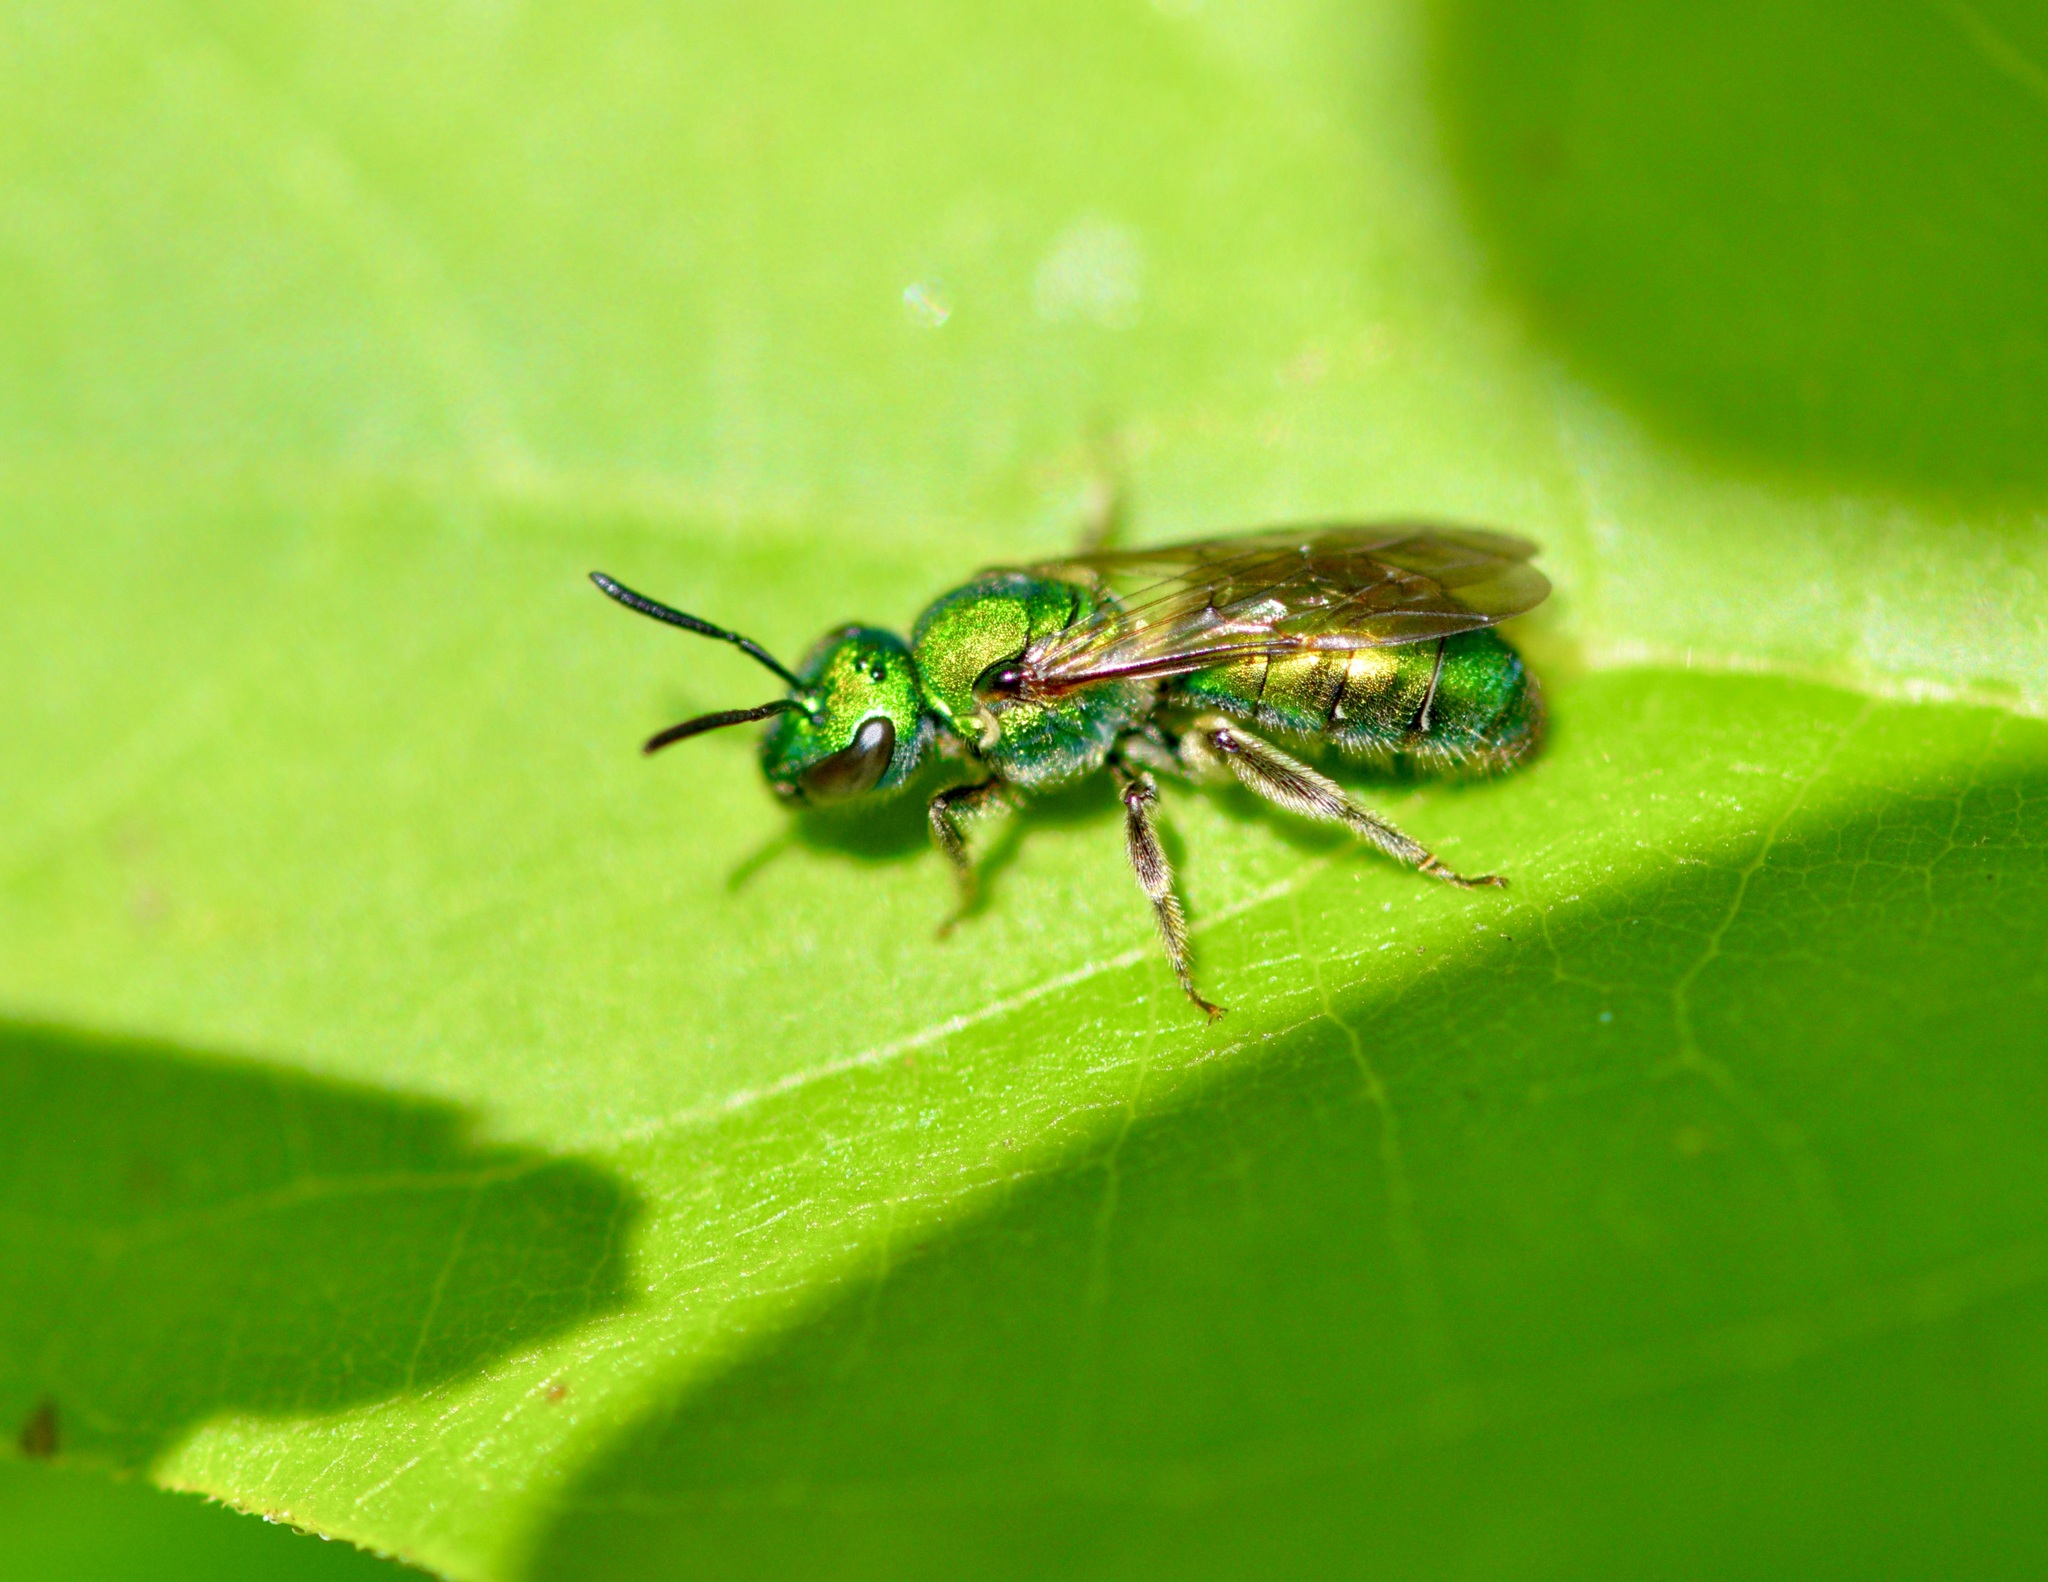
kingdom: Animalia
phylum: Arthropoda
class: Insecta
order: Hymenoptera
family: Halictidae
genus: Augochlora
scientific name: Augochlora pura
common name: Pure green sweat bee
